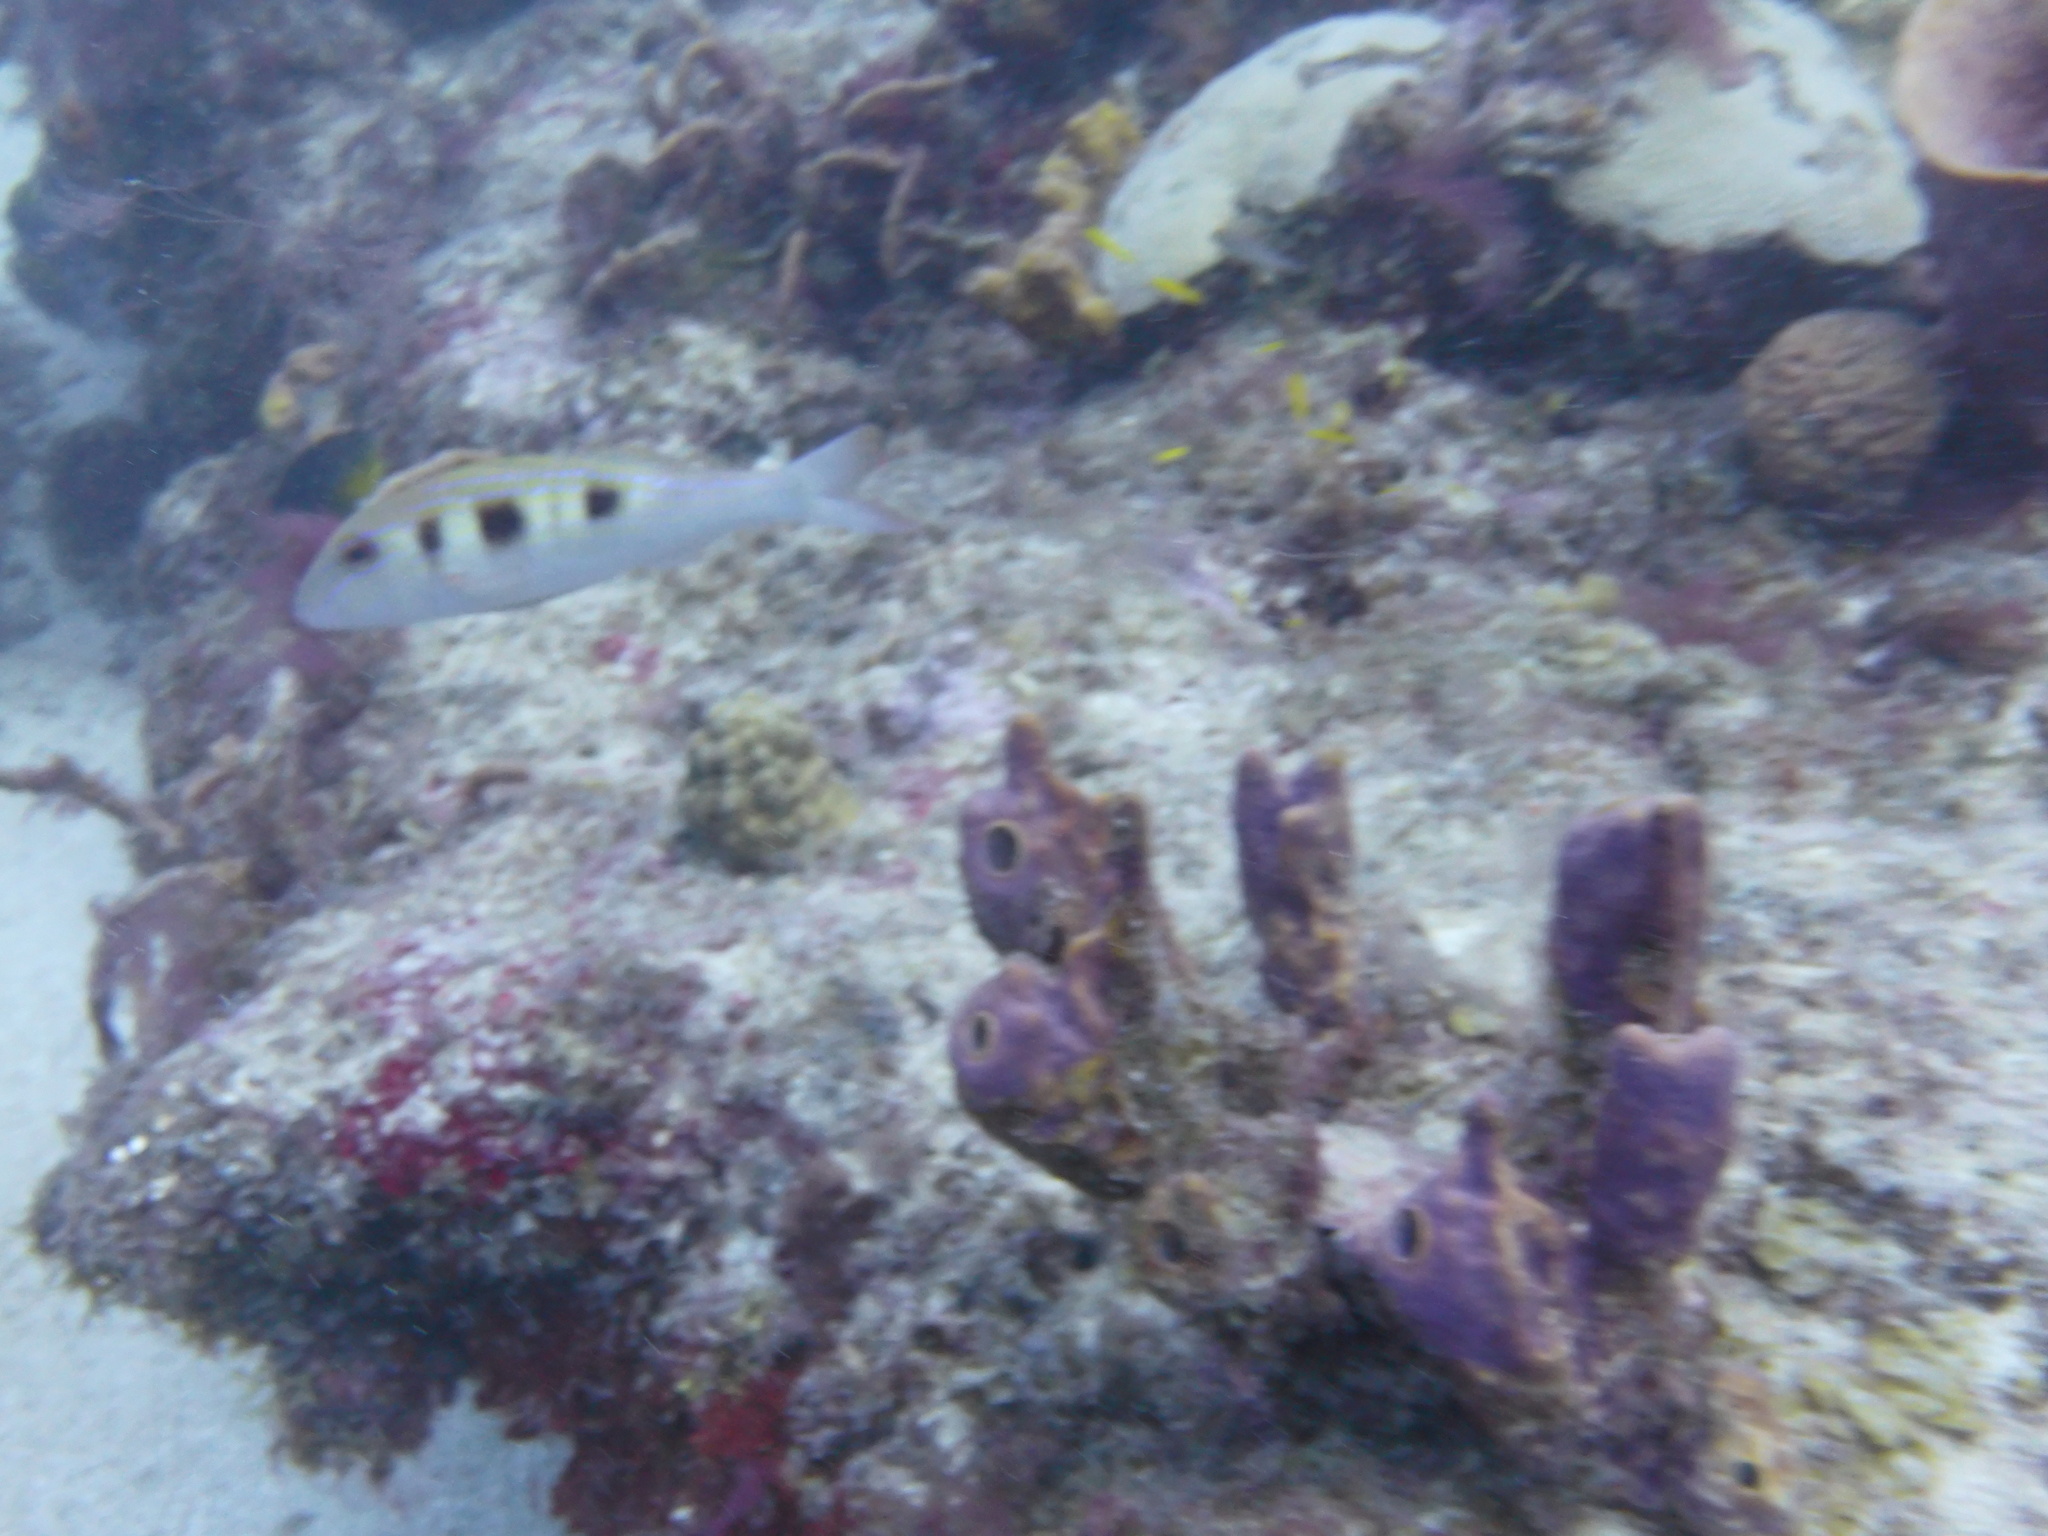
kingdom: Animalia
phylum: Chordata
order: Perciformes
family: Mullidae
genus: Pseudupeneus
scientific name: Pseudupeneus maculatus
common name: Spotted goatfish
